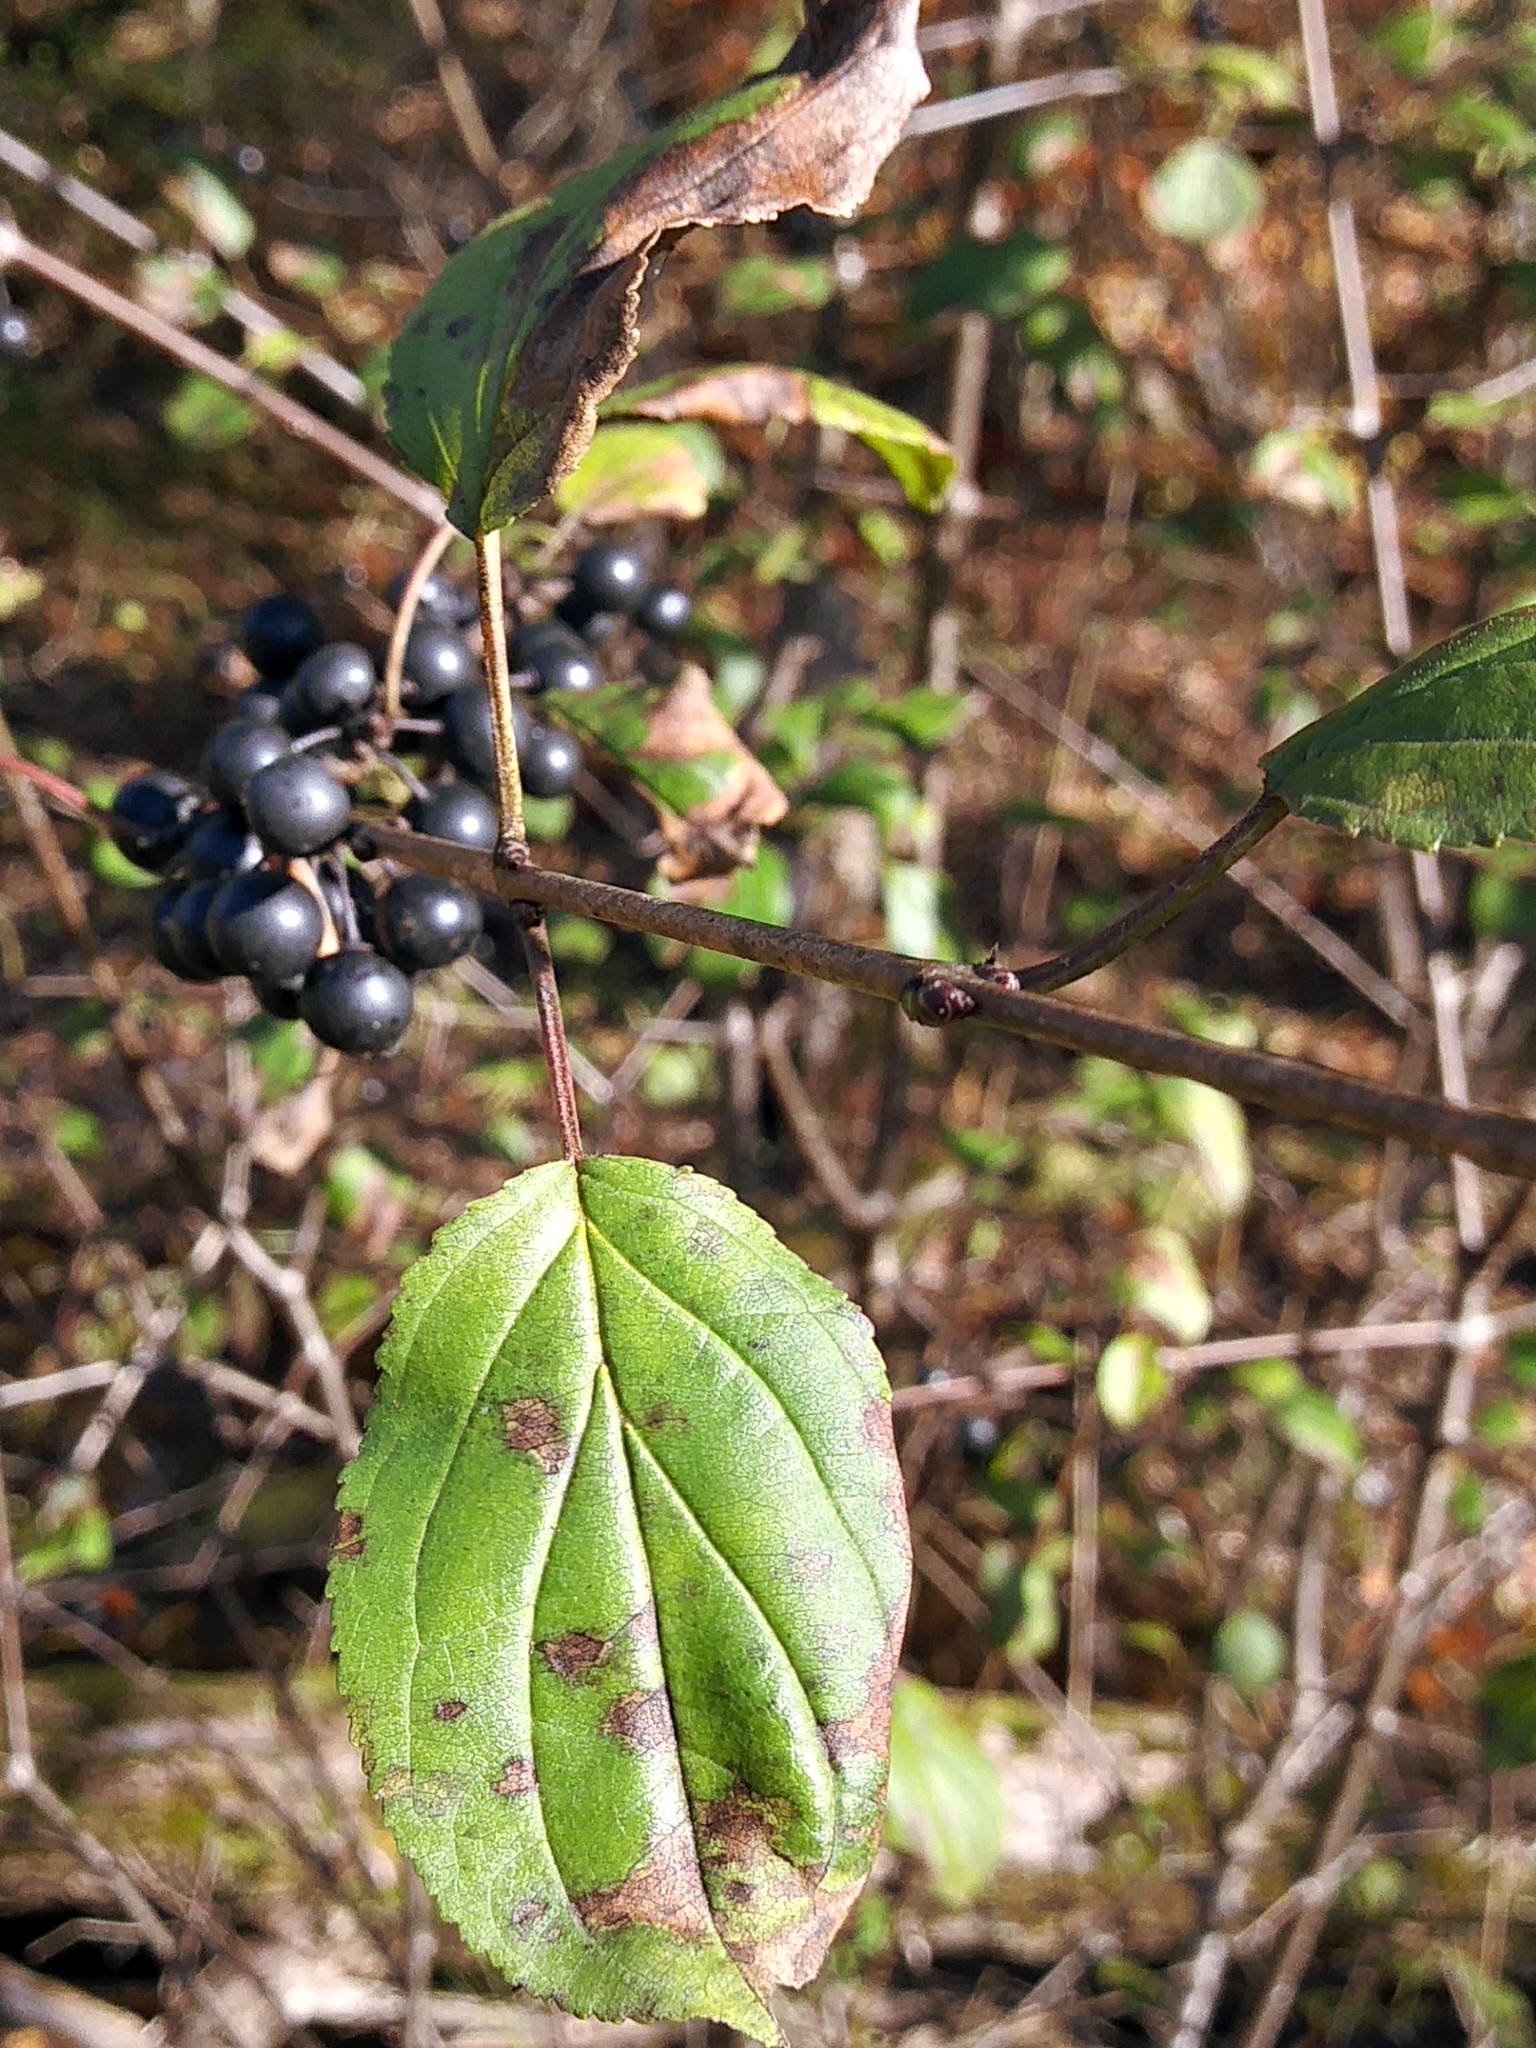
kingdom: Plantae
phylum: Tracheophyta
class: Magnoliopsida
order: Rosales
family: Rhamnaceae
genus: Rhamnus
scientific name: Rhamnus cathartica
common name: Common buckthorn
